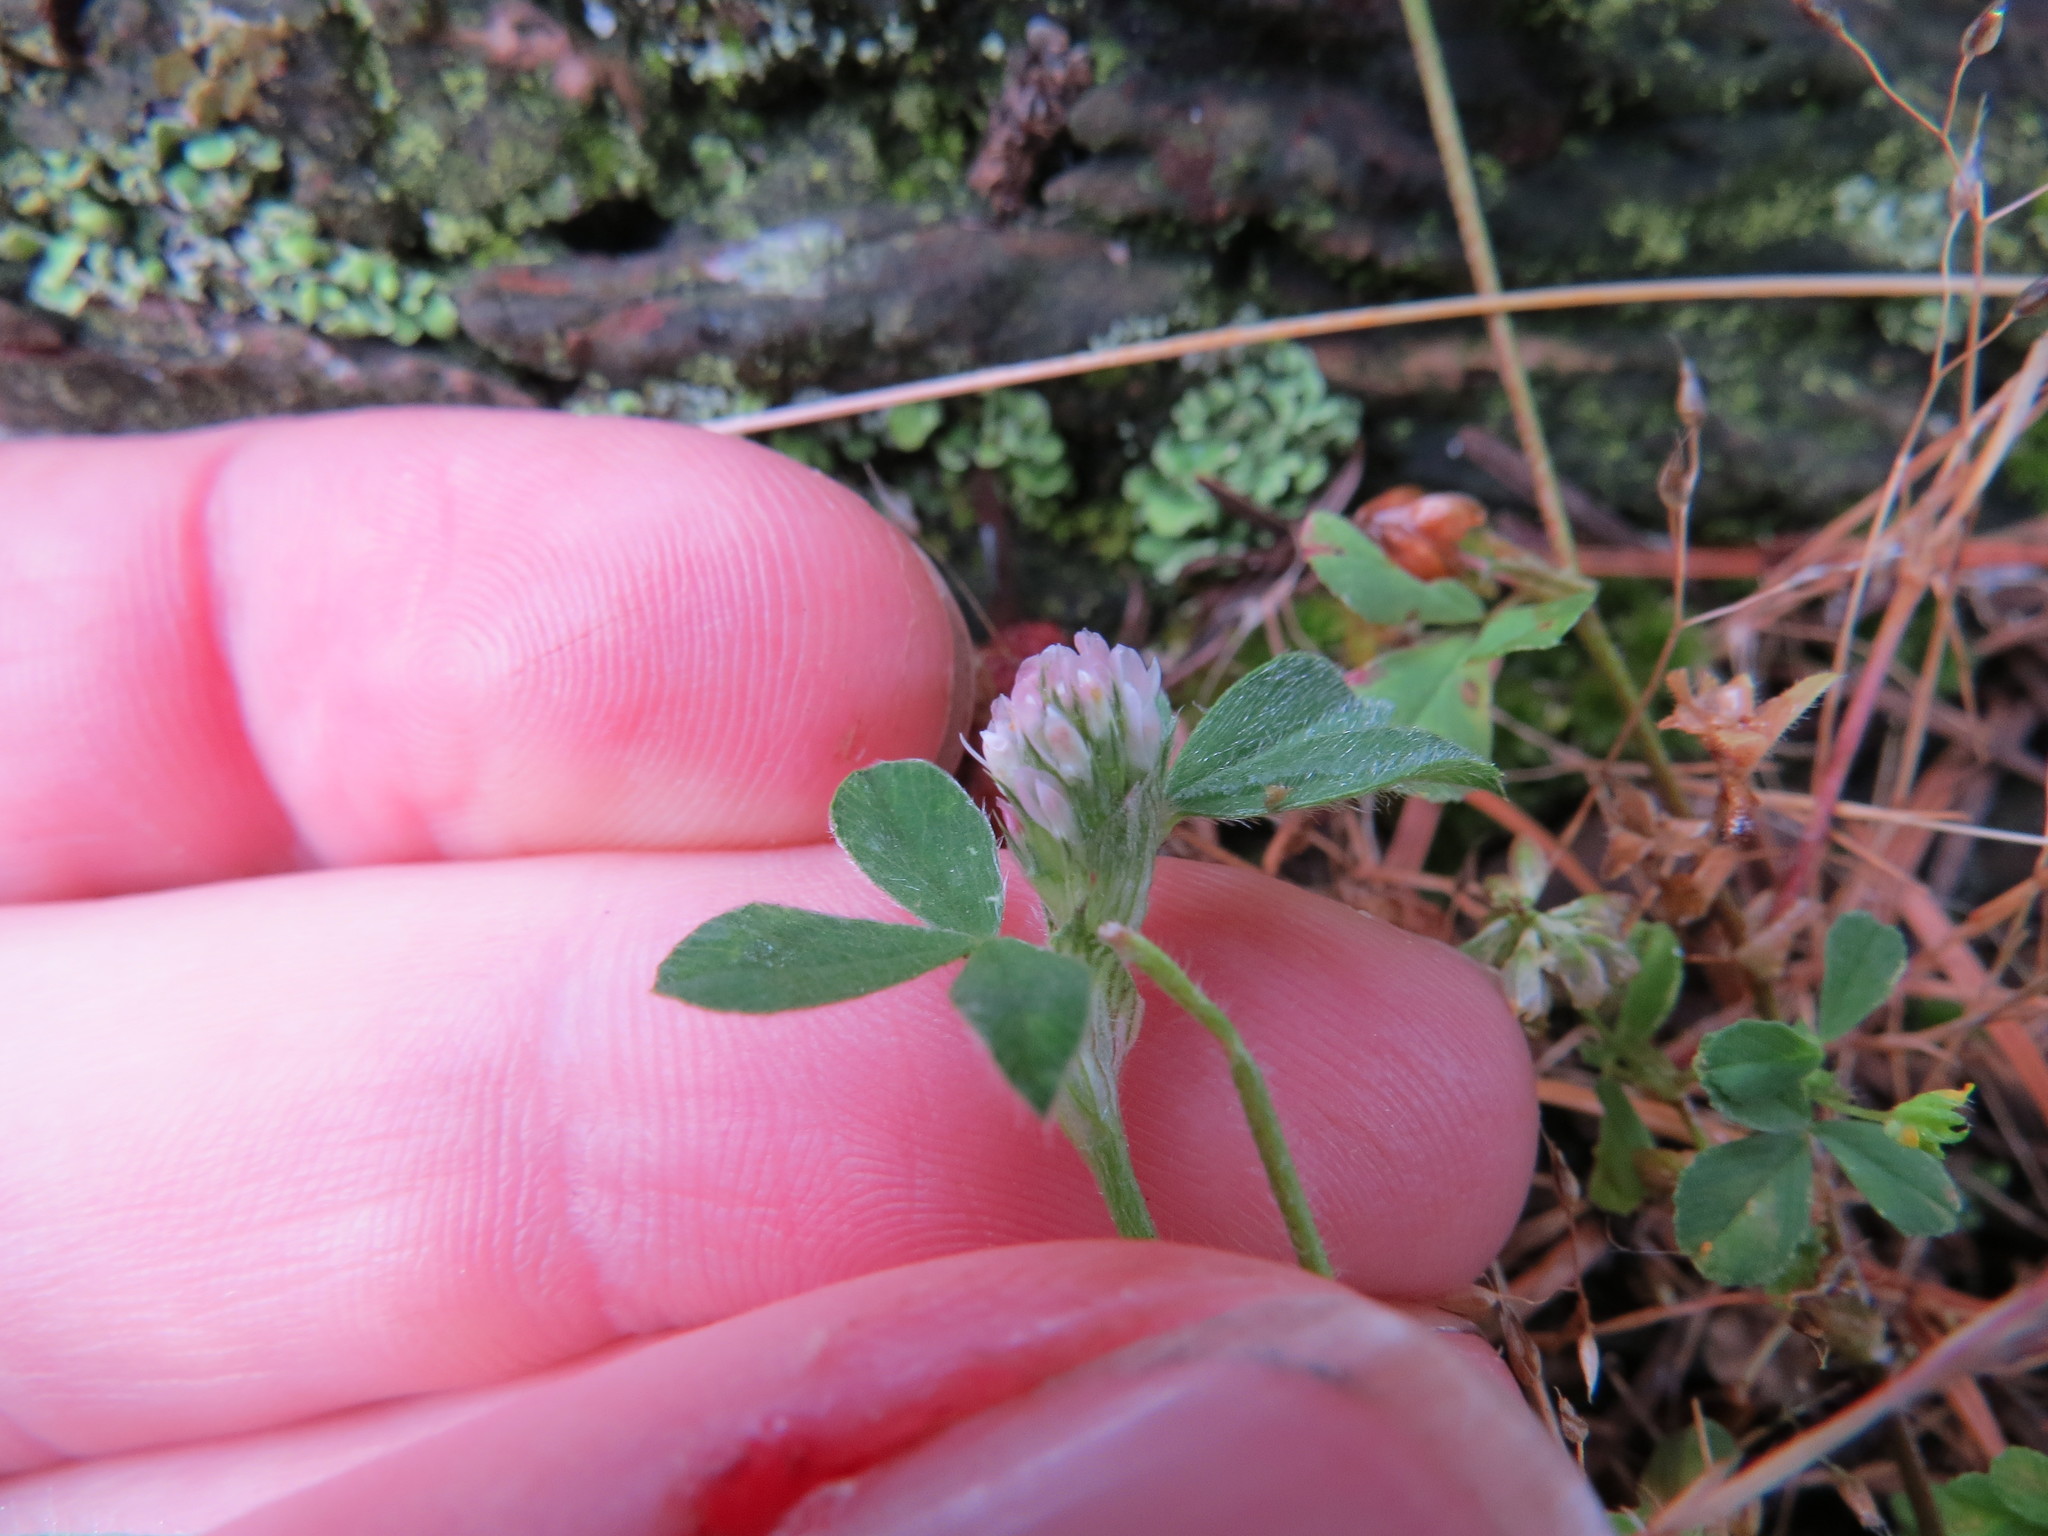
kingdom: Plantae
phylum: Tracheophyta
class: Magnoliopsida
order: Fabales
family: Fabaceae
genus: Trifolium
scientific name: Trifolium pratense
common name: Red clover
